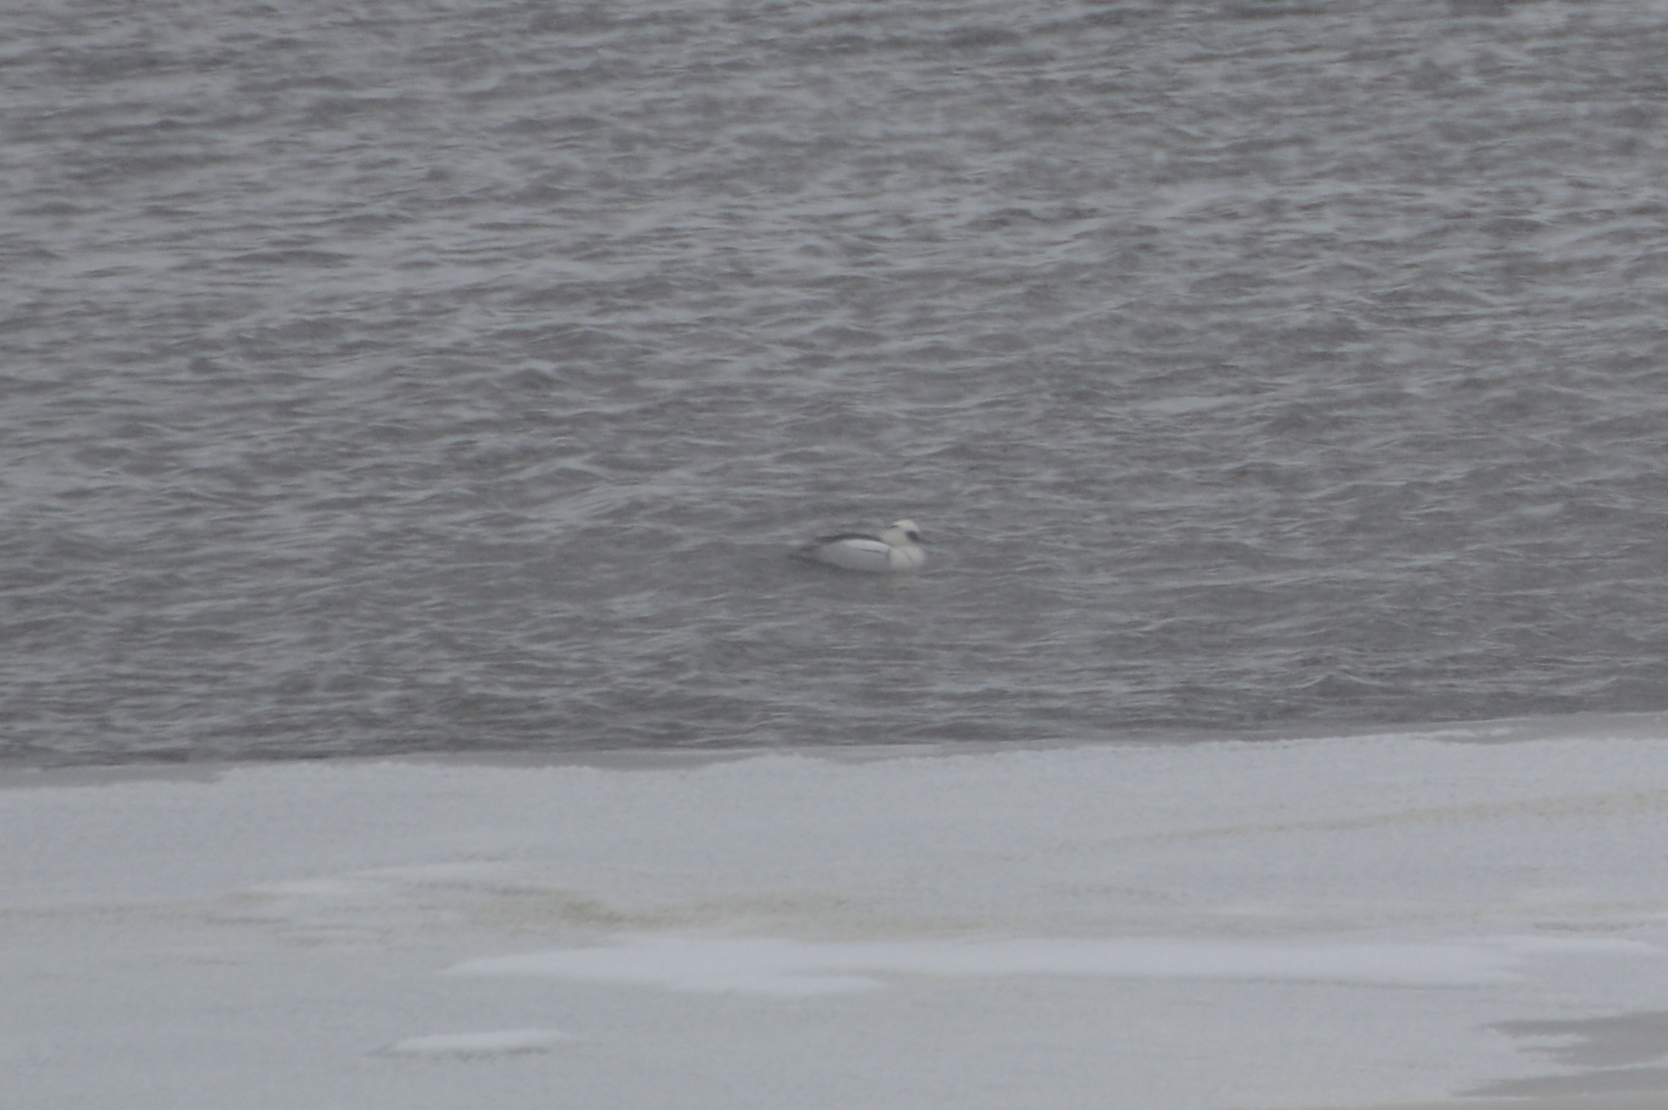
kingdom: Animalia
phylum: Chordata
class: Aves
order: Anseriformes
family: Anatidae
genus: Mergellus
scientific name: Mergellus albellus
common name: Smew
